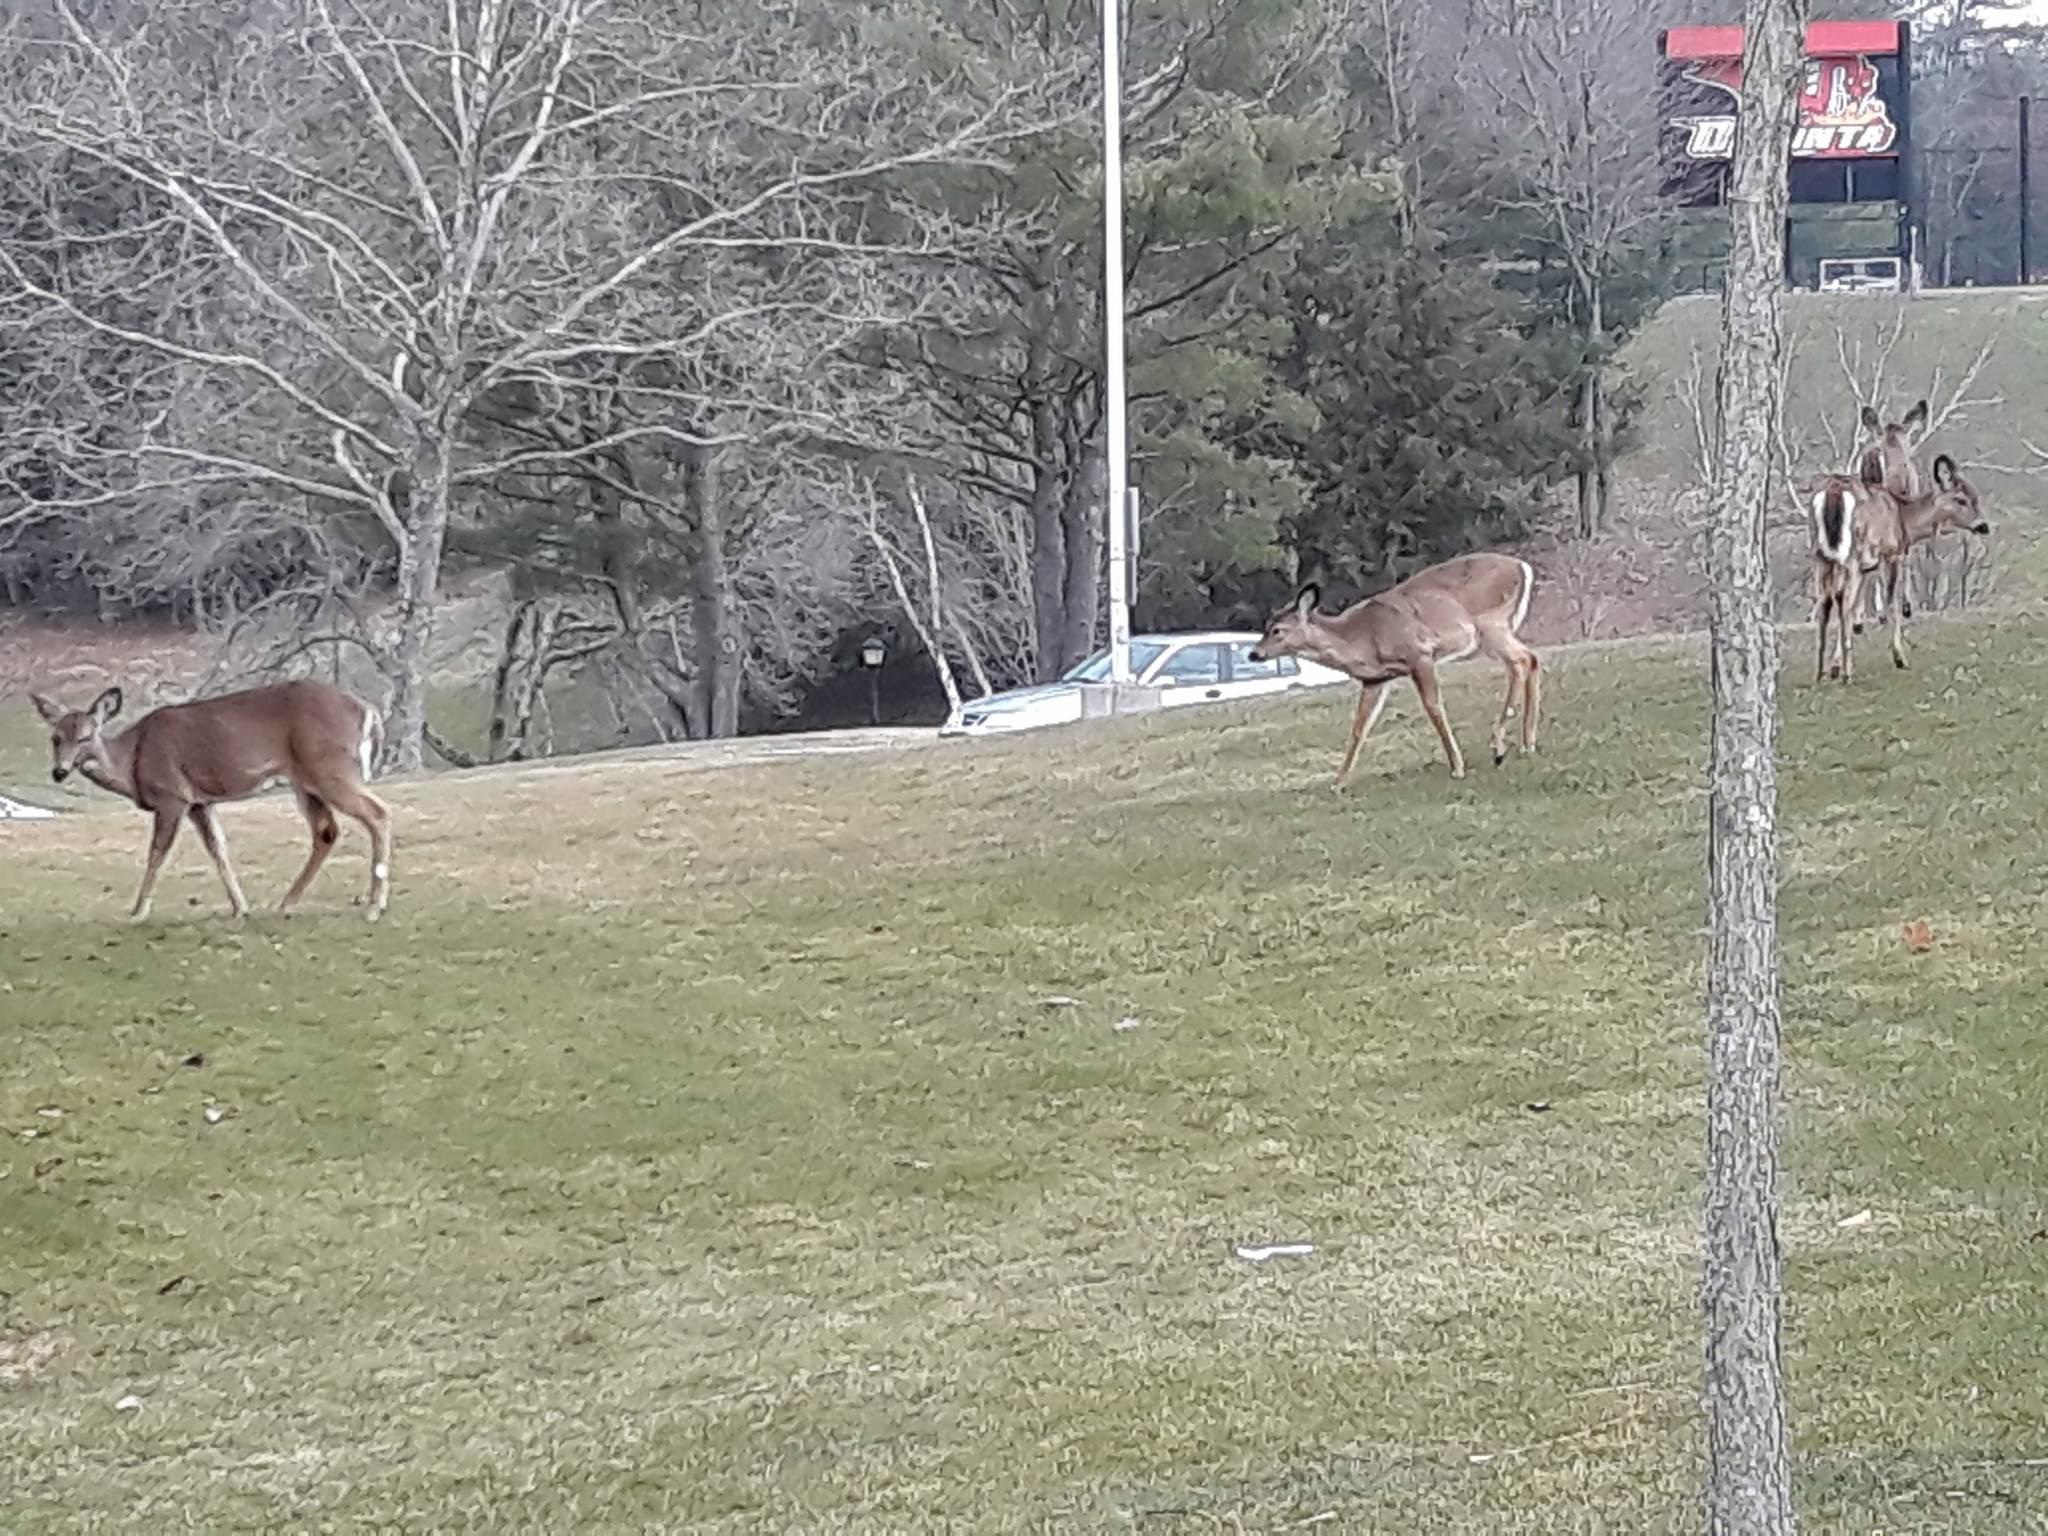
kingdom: Animalia
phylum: Chordata
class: Mammalia
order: Artiodactyla
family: Cervidae
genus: Odocoileus
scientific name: Odocoileus virginianus
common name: White-tailed deer
